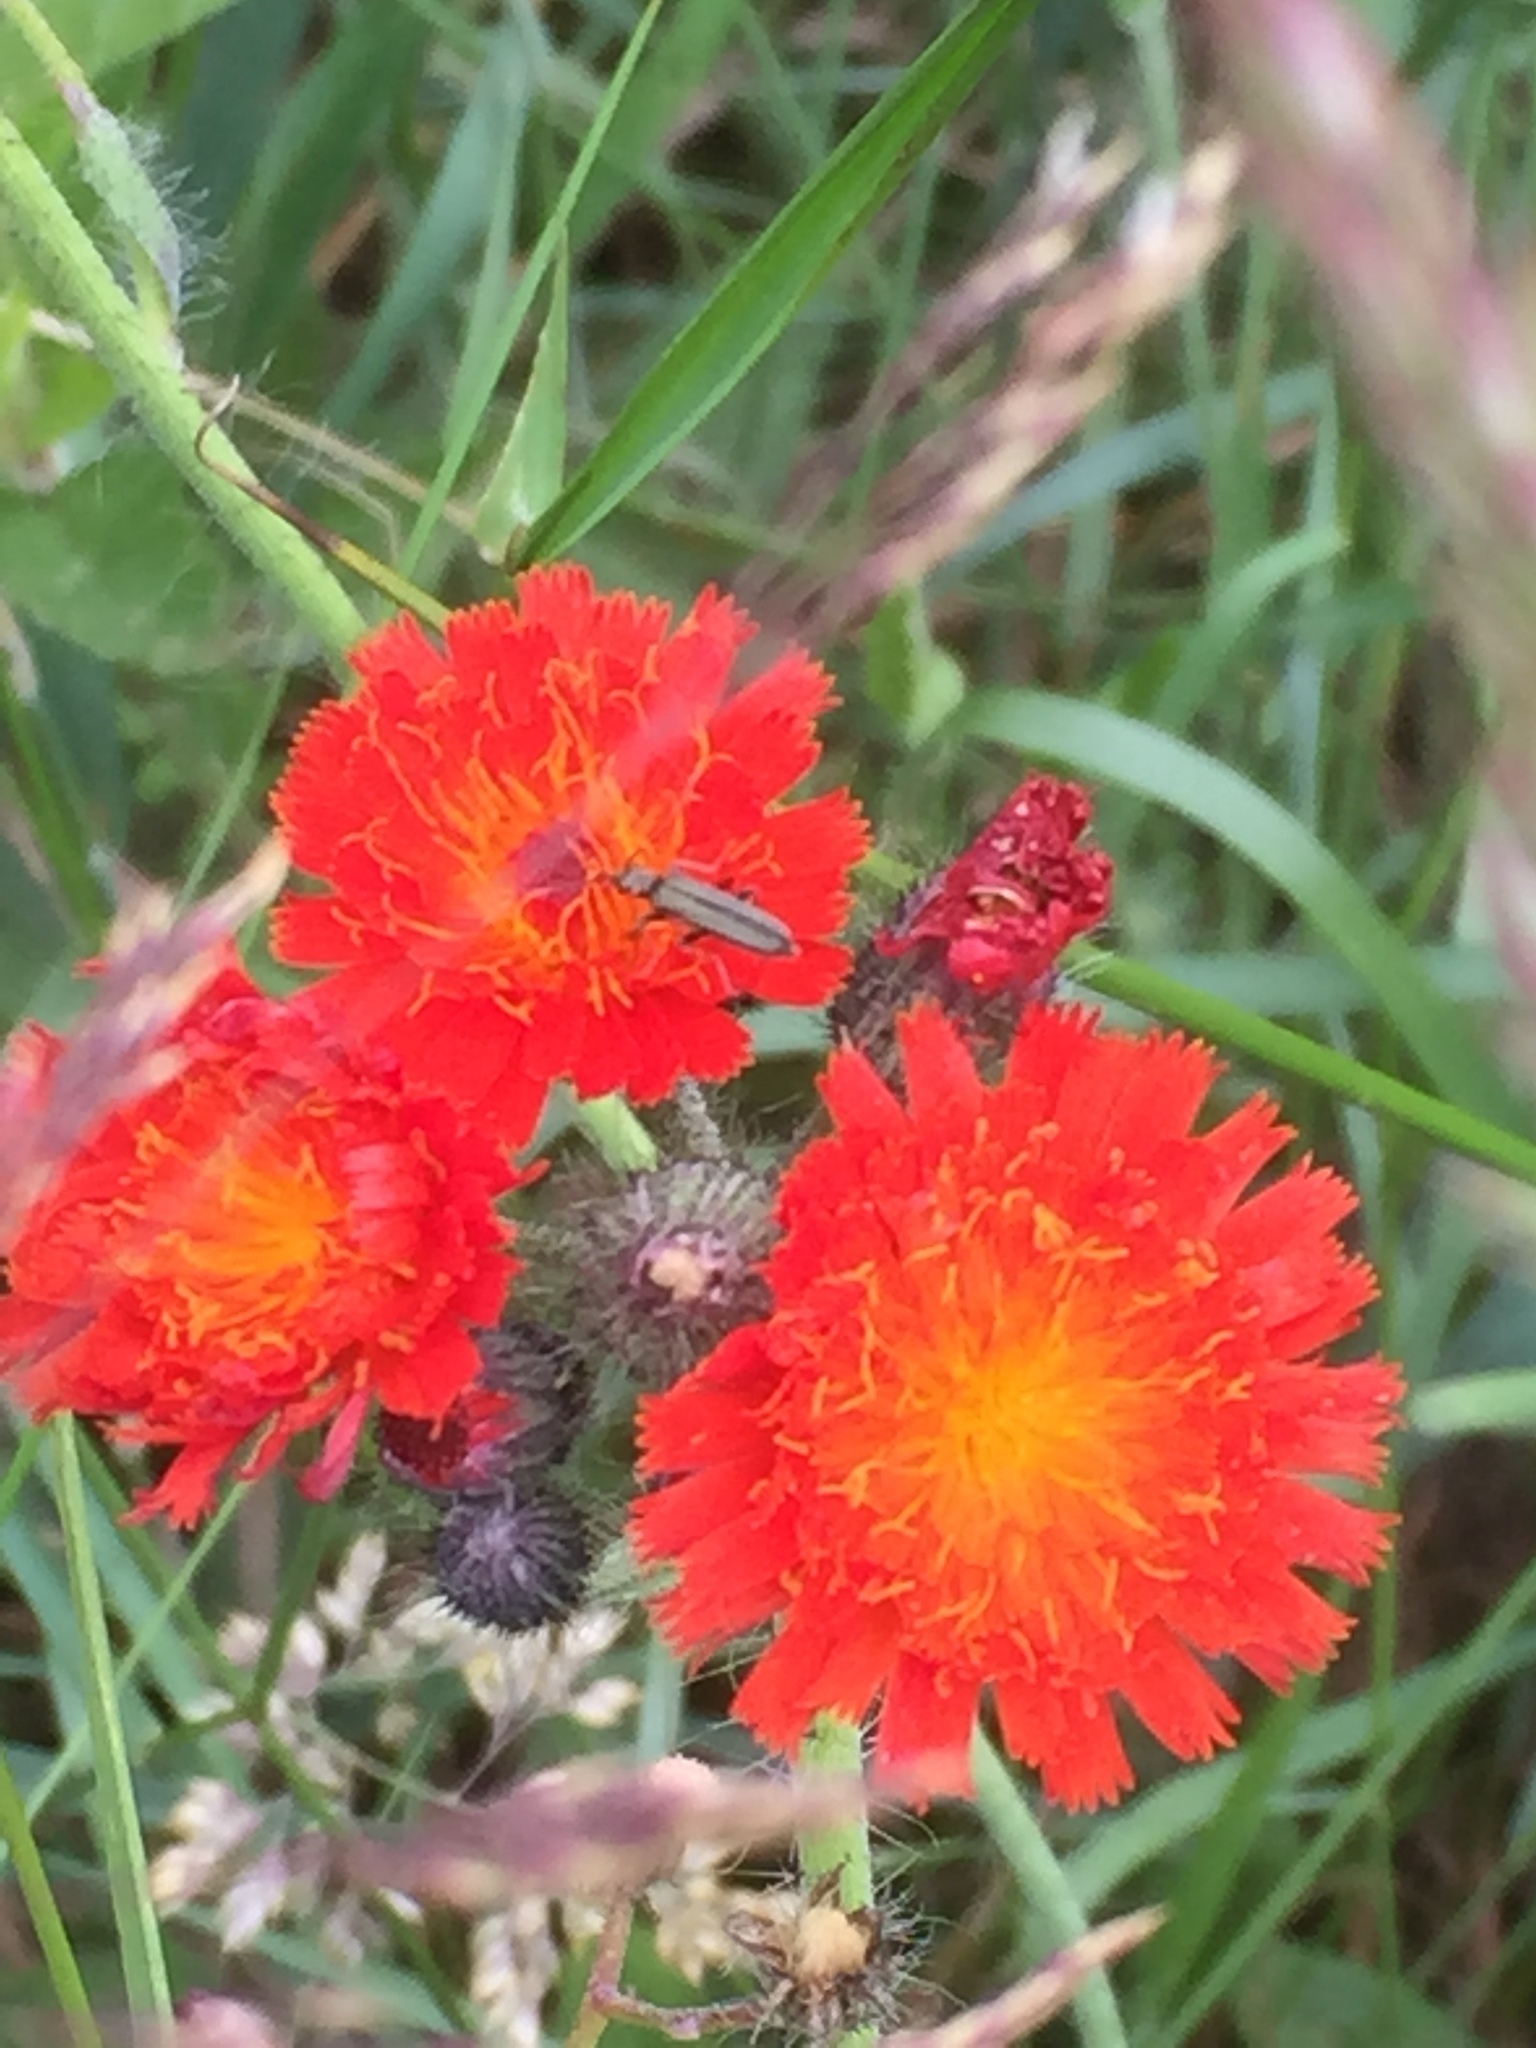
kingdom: Plantae
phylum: Tracheophyta
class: Magnoliopsida
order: Asterales
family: Asteraceae
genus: Pilosella
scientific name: Pilosella aurantiaca
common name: Fox-and-cubs
